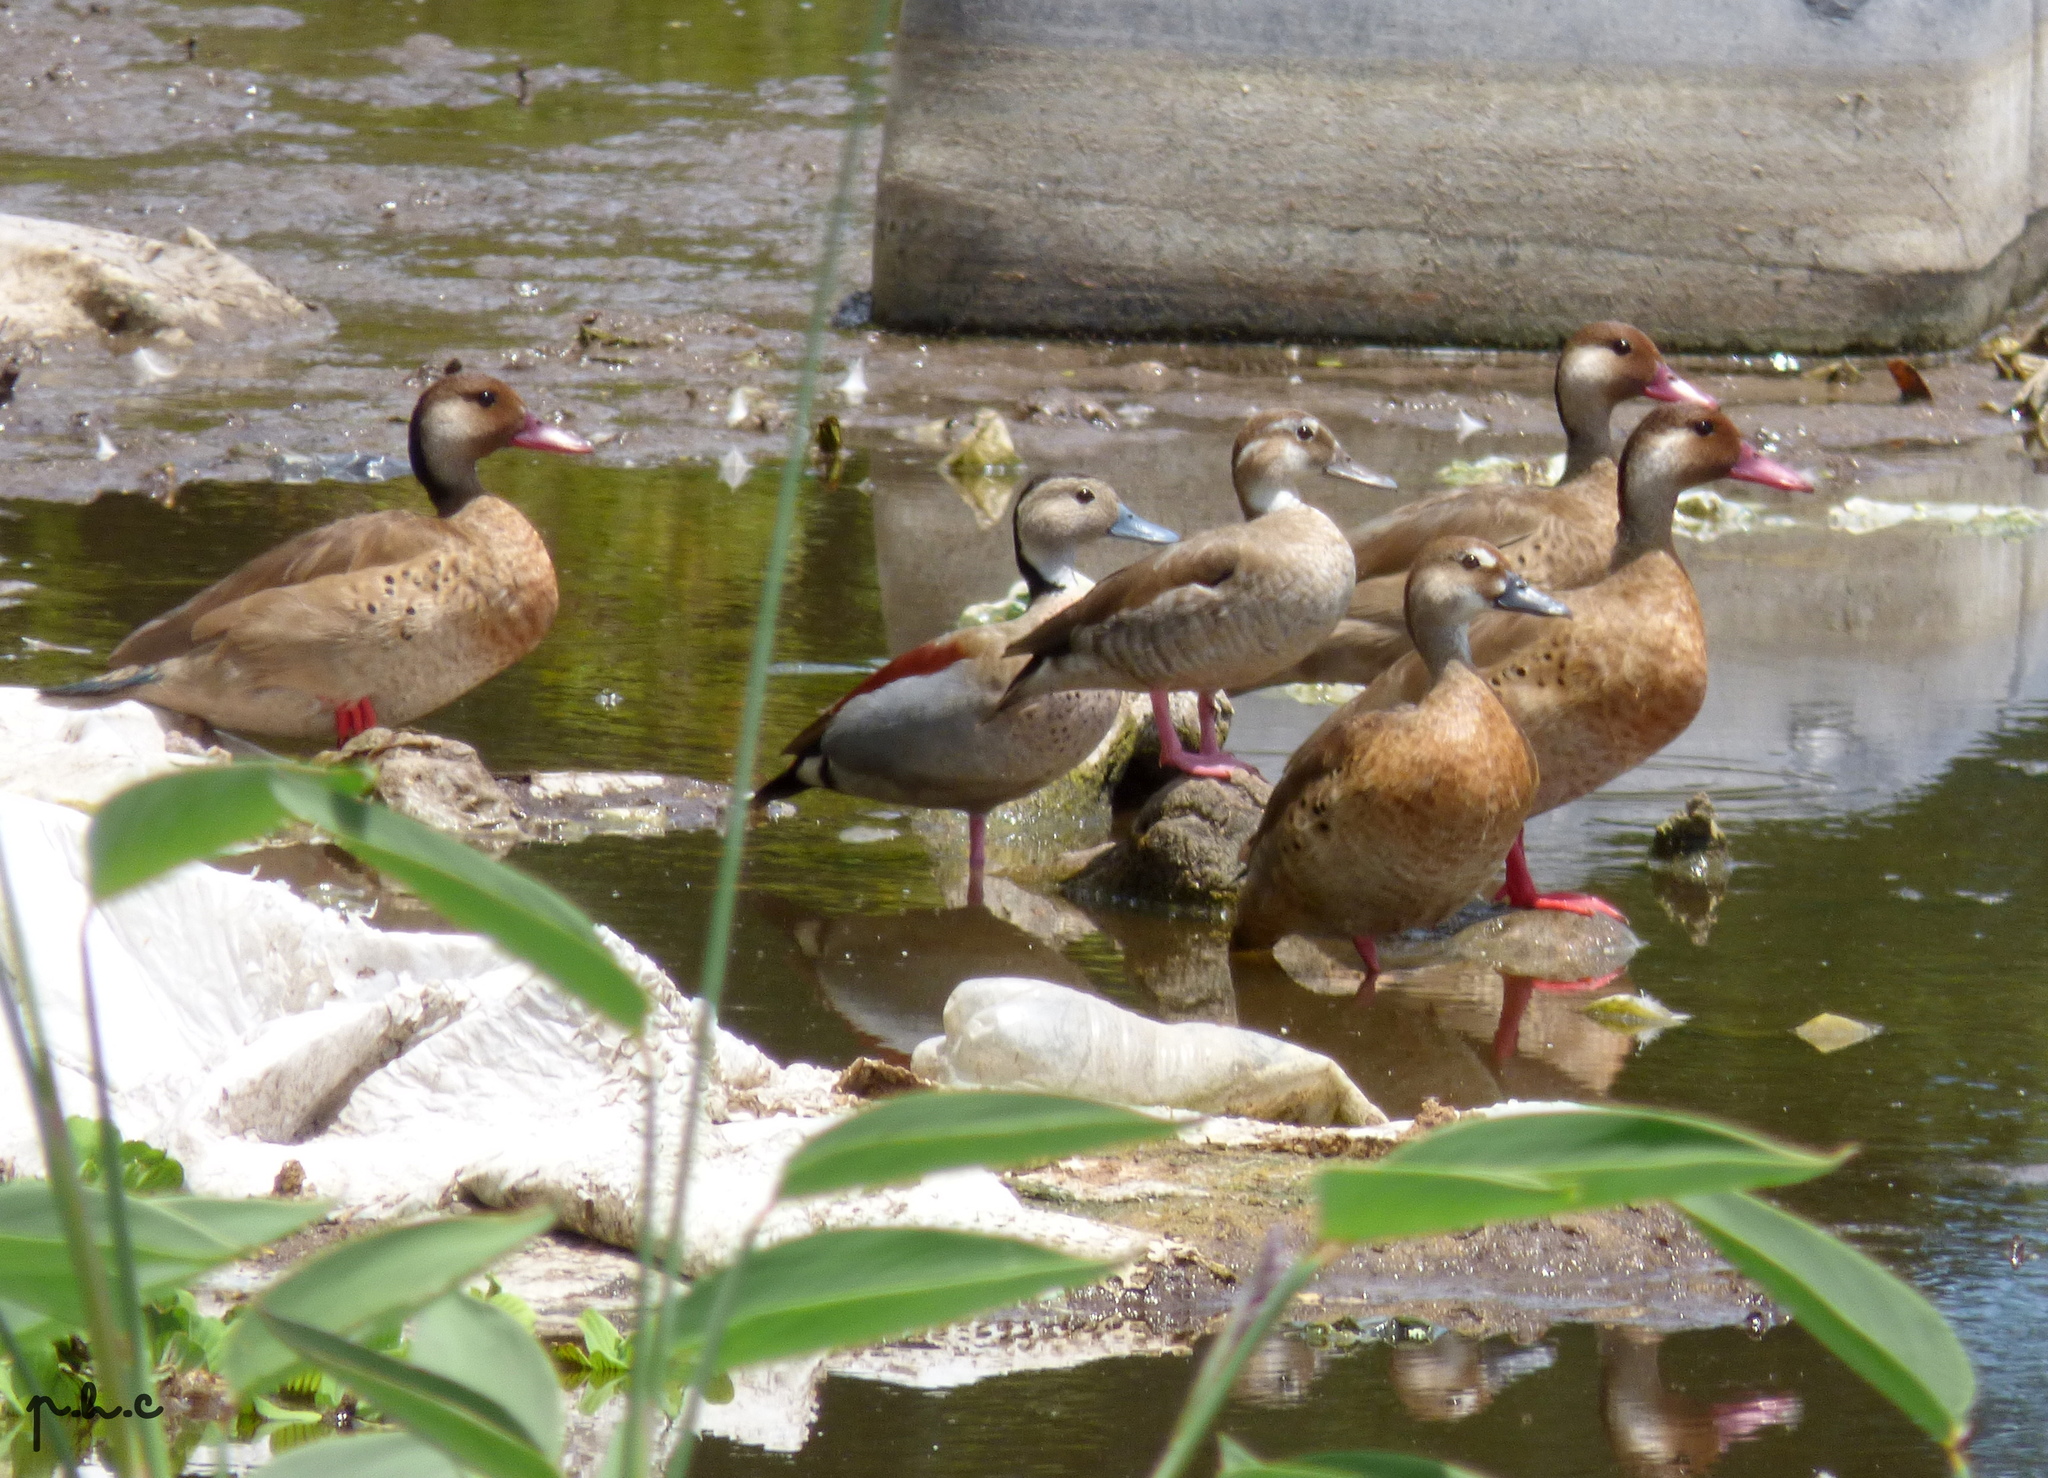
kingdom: Animalia
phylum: Chordata
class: Aves
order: Anseriformes
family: Anatidae
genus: Amazonetta
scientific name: Amazonetta brasiliensis
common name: Brazilian teal
